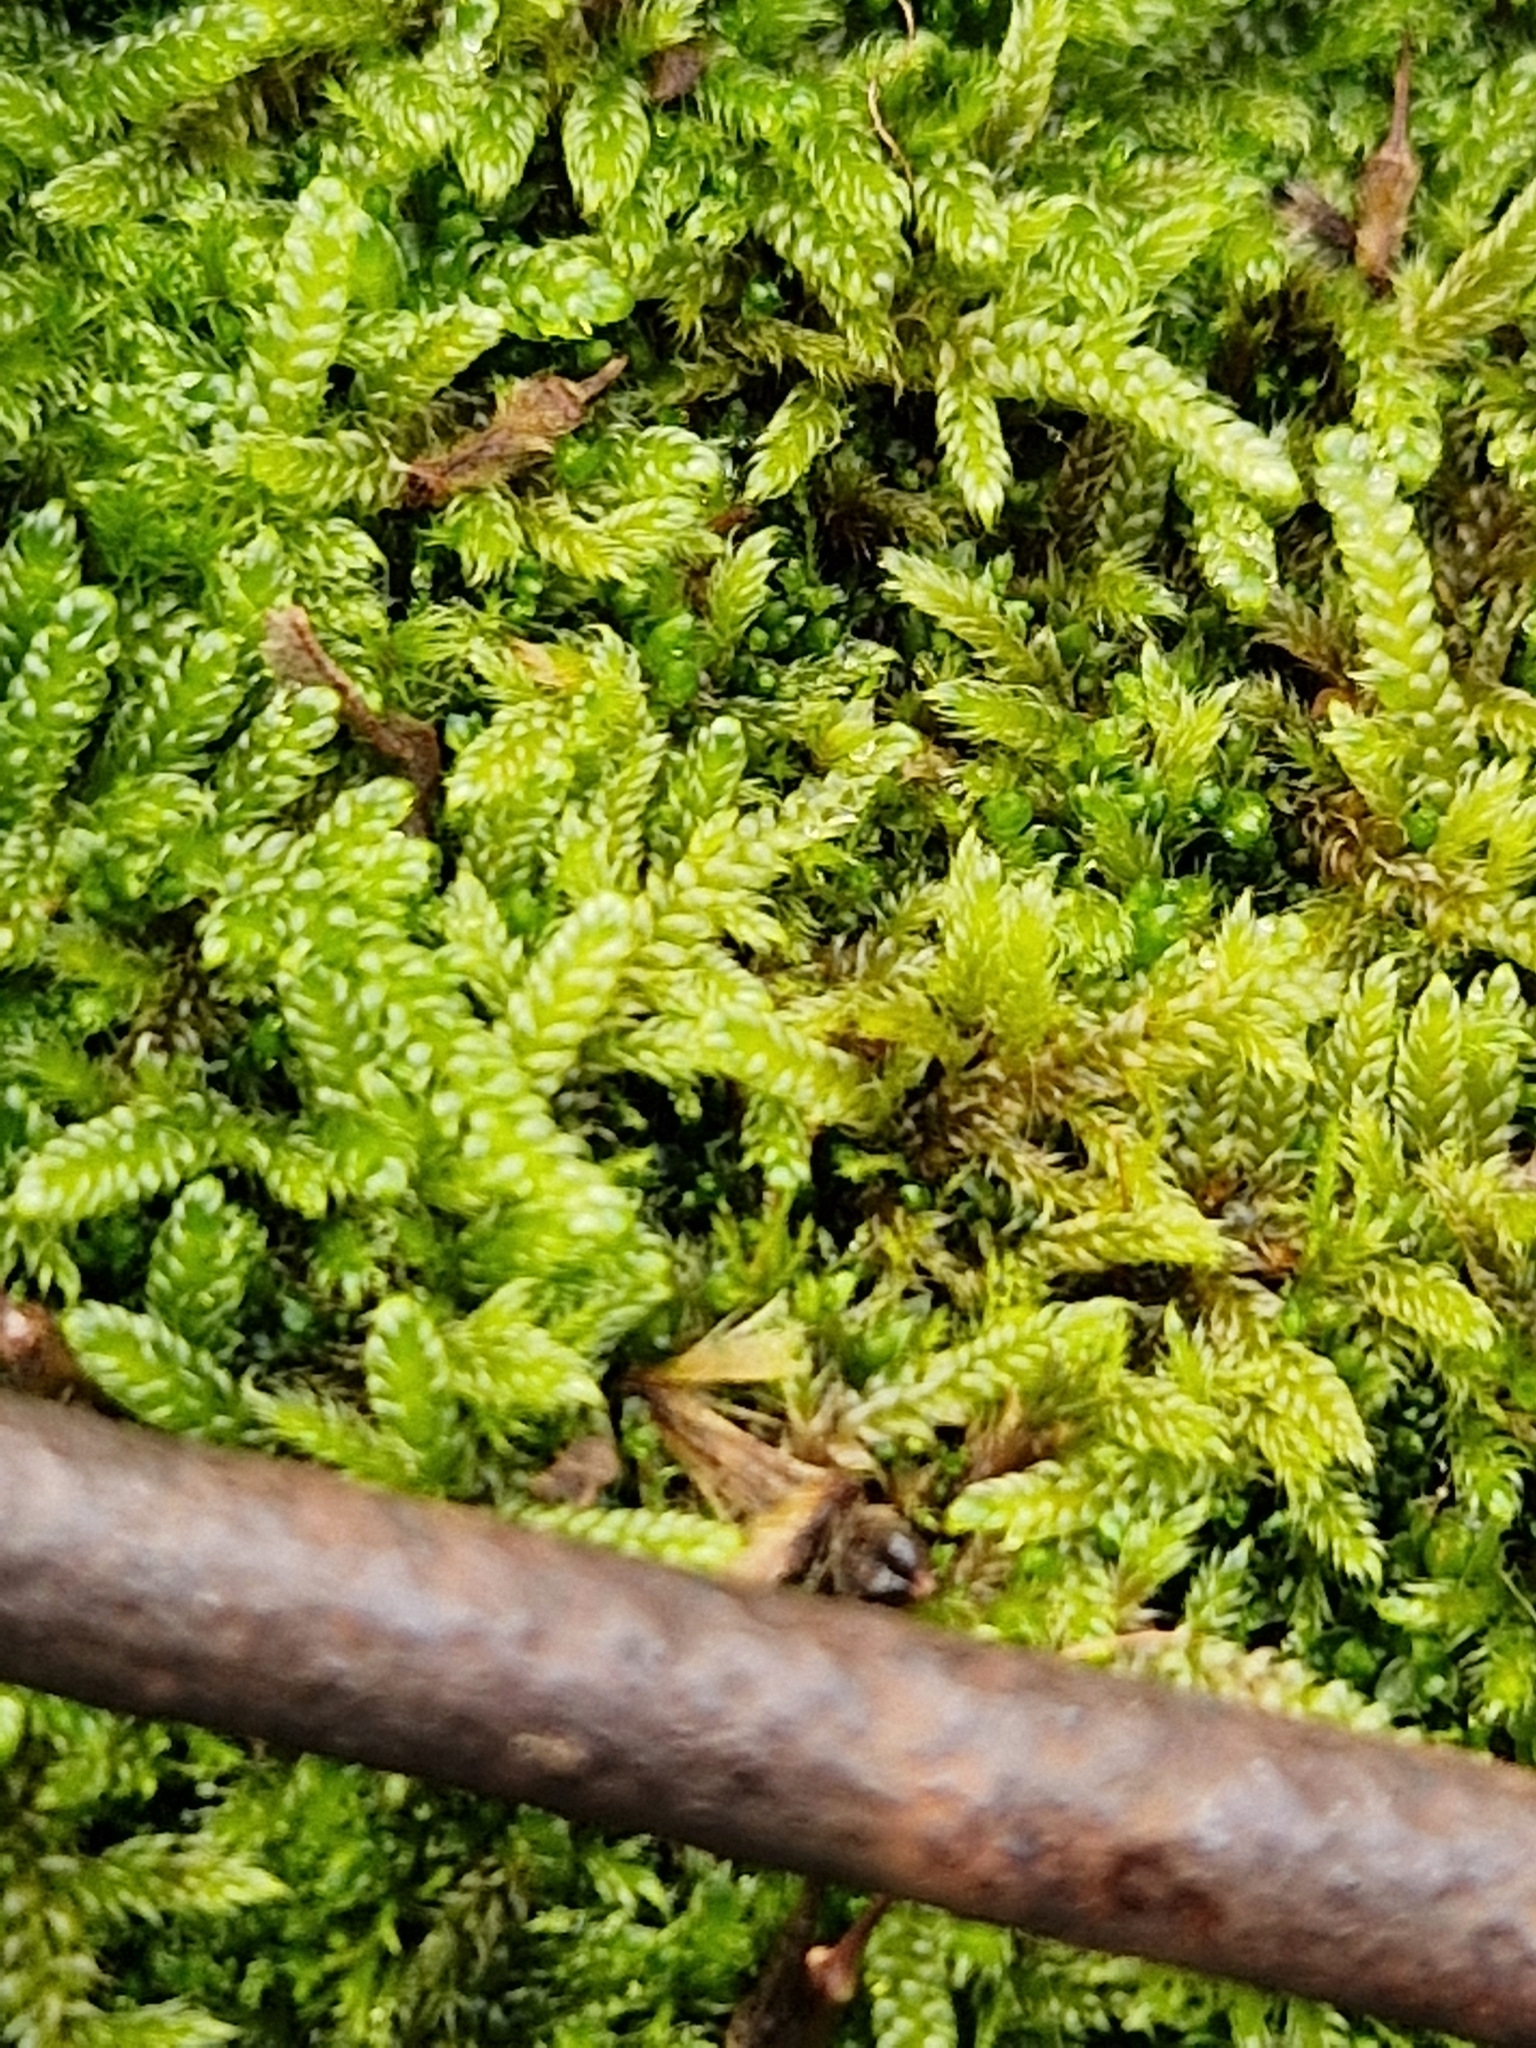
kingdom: Plantae
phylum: Bryophyta
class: Bryopsida
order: Hypnales
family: Hypnaceae
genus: Hypnum
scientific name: Hypnum cupressiforme
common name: Cypress-leaved plait-moss
